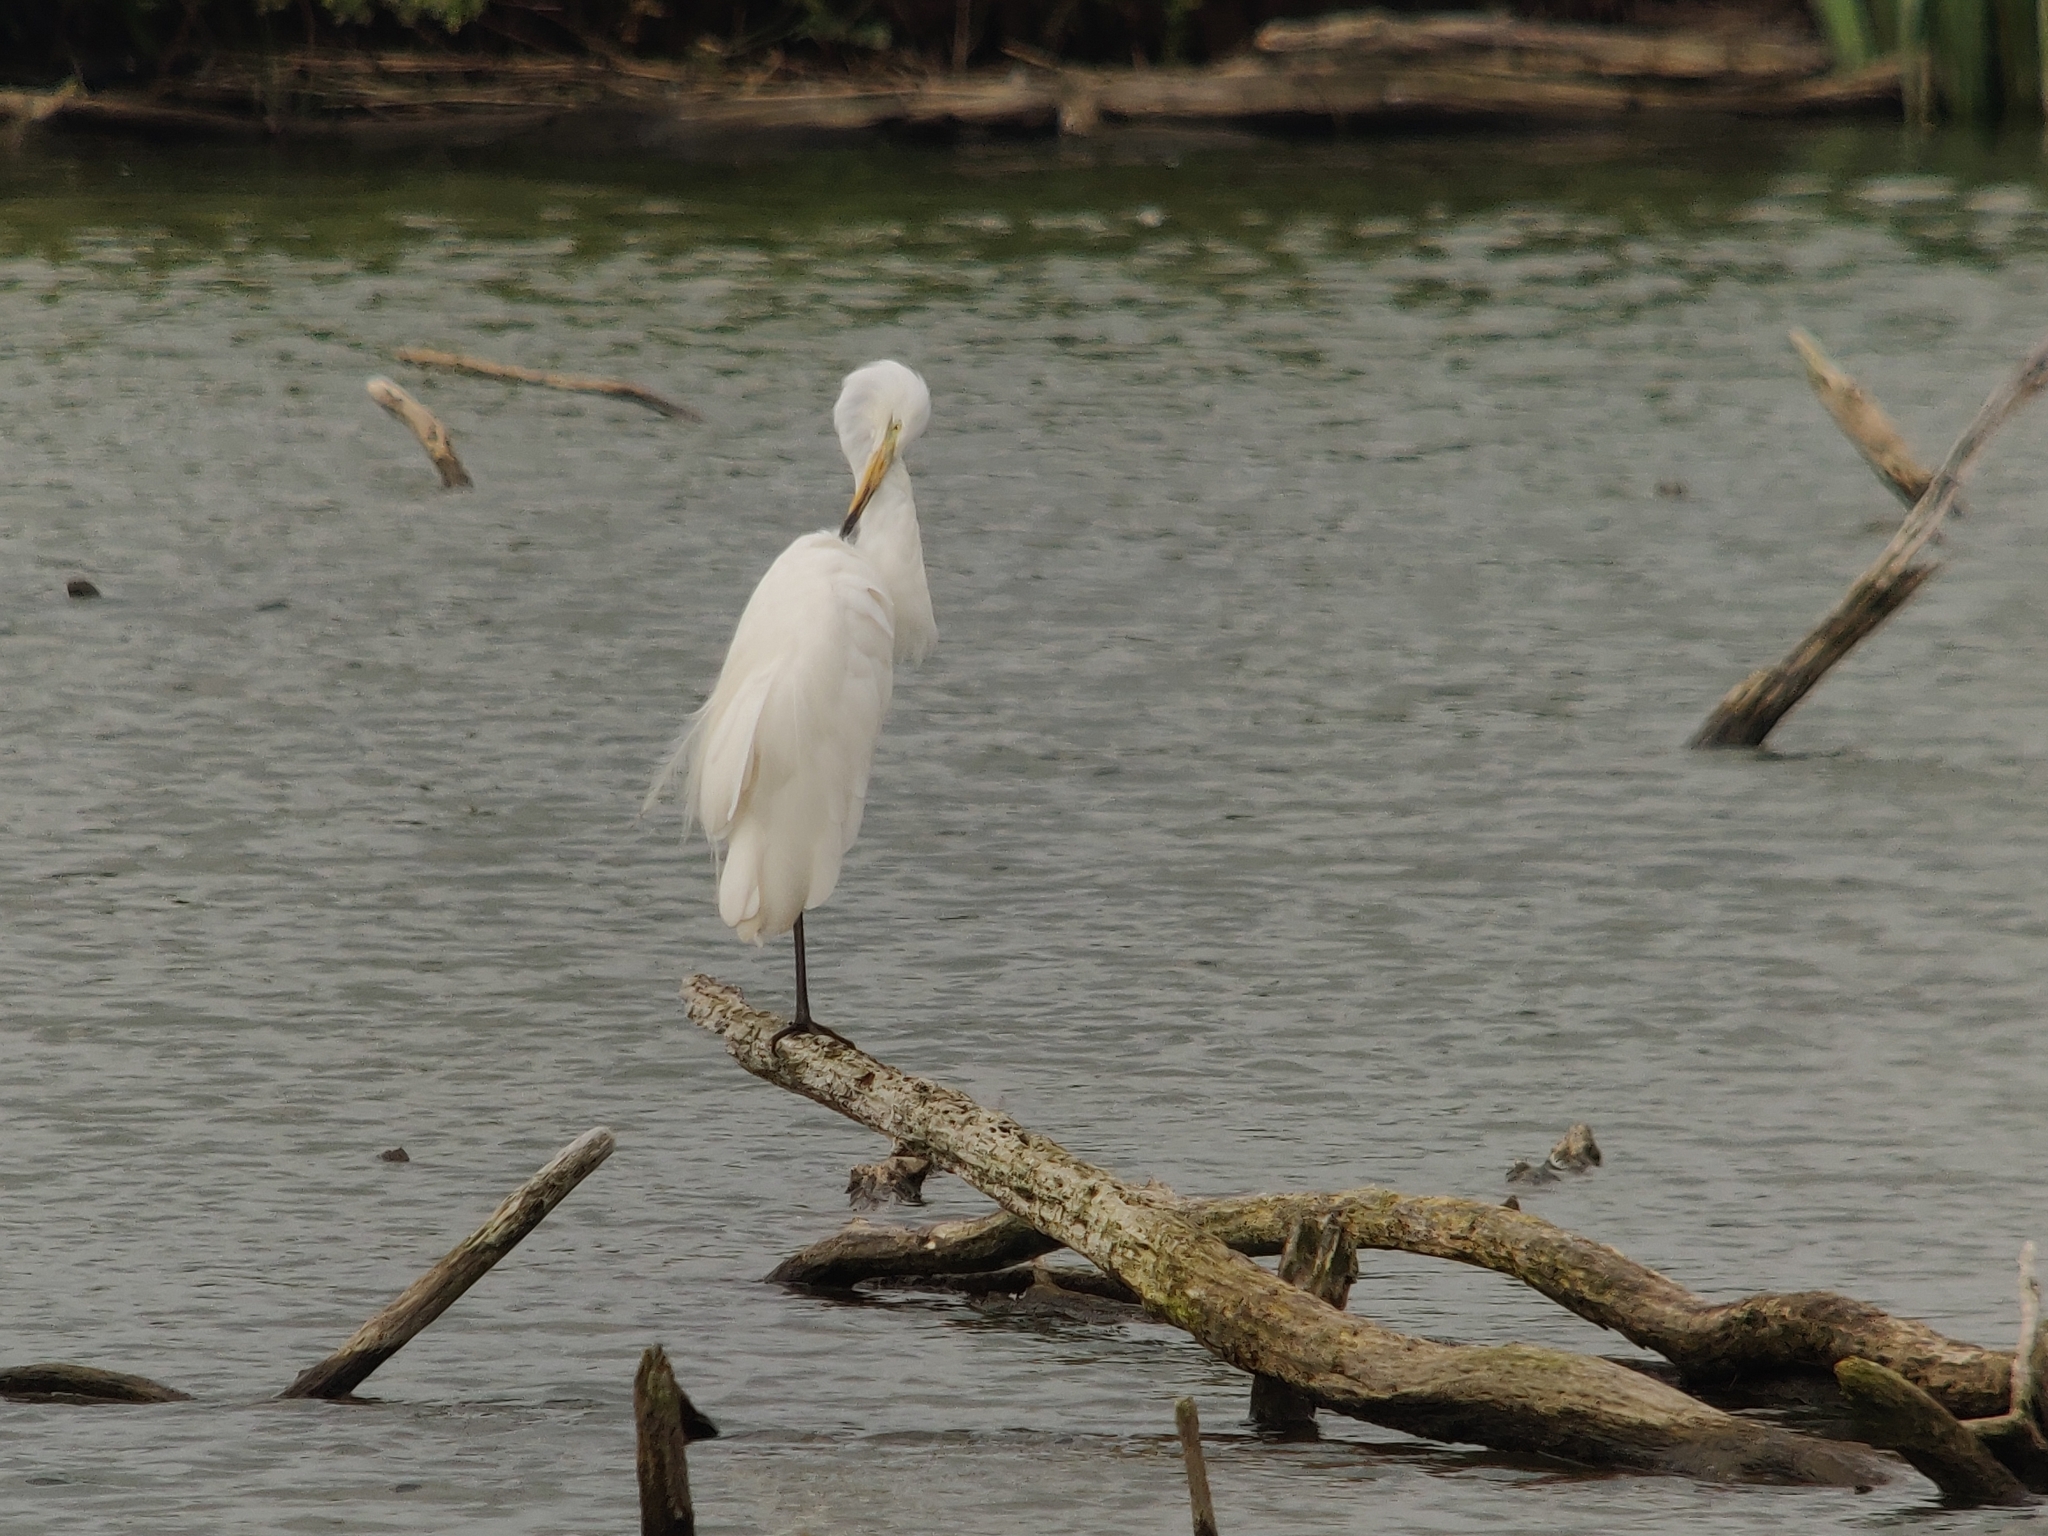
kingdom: Animalia
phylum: Chordata
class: Aves
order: Pelecaniformes
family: Ardeidae
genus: Ardea
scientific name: Ardea alba
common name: Great egret
